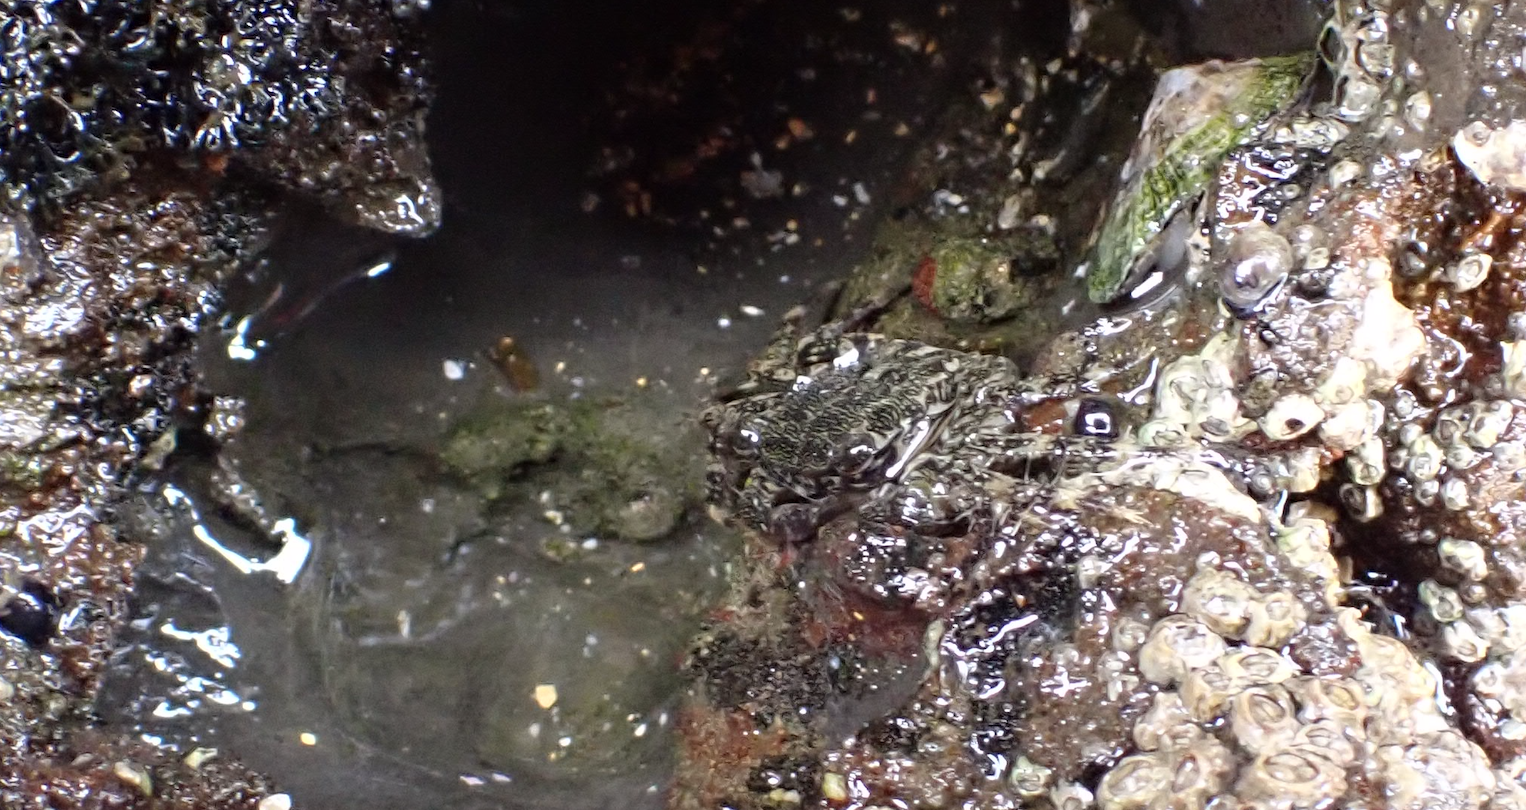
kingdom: Animalia
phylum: Arthropoda
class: Malacostraca
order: Decapoda
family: Grapsidae
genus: Pachygrapsus
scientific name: Pachygrapsus marmoratus
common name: Marbled rock crab
